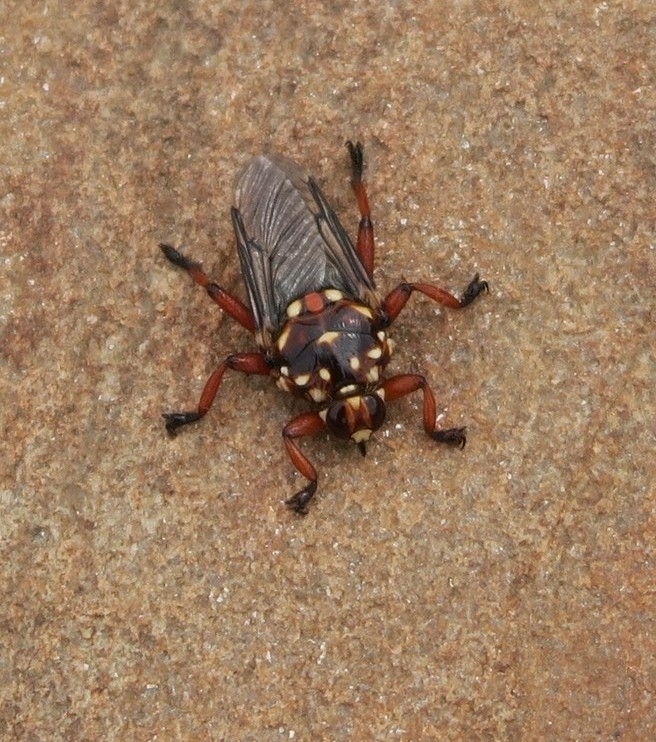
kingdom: Animalia
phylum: Arthropoda
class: Insecta
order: Diptera
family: Hippoboscidae
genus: Hippobosca
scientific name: Hippobosca rufipes
